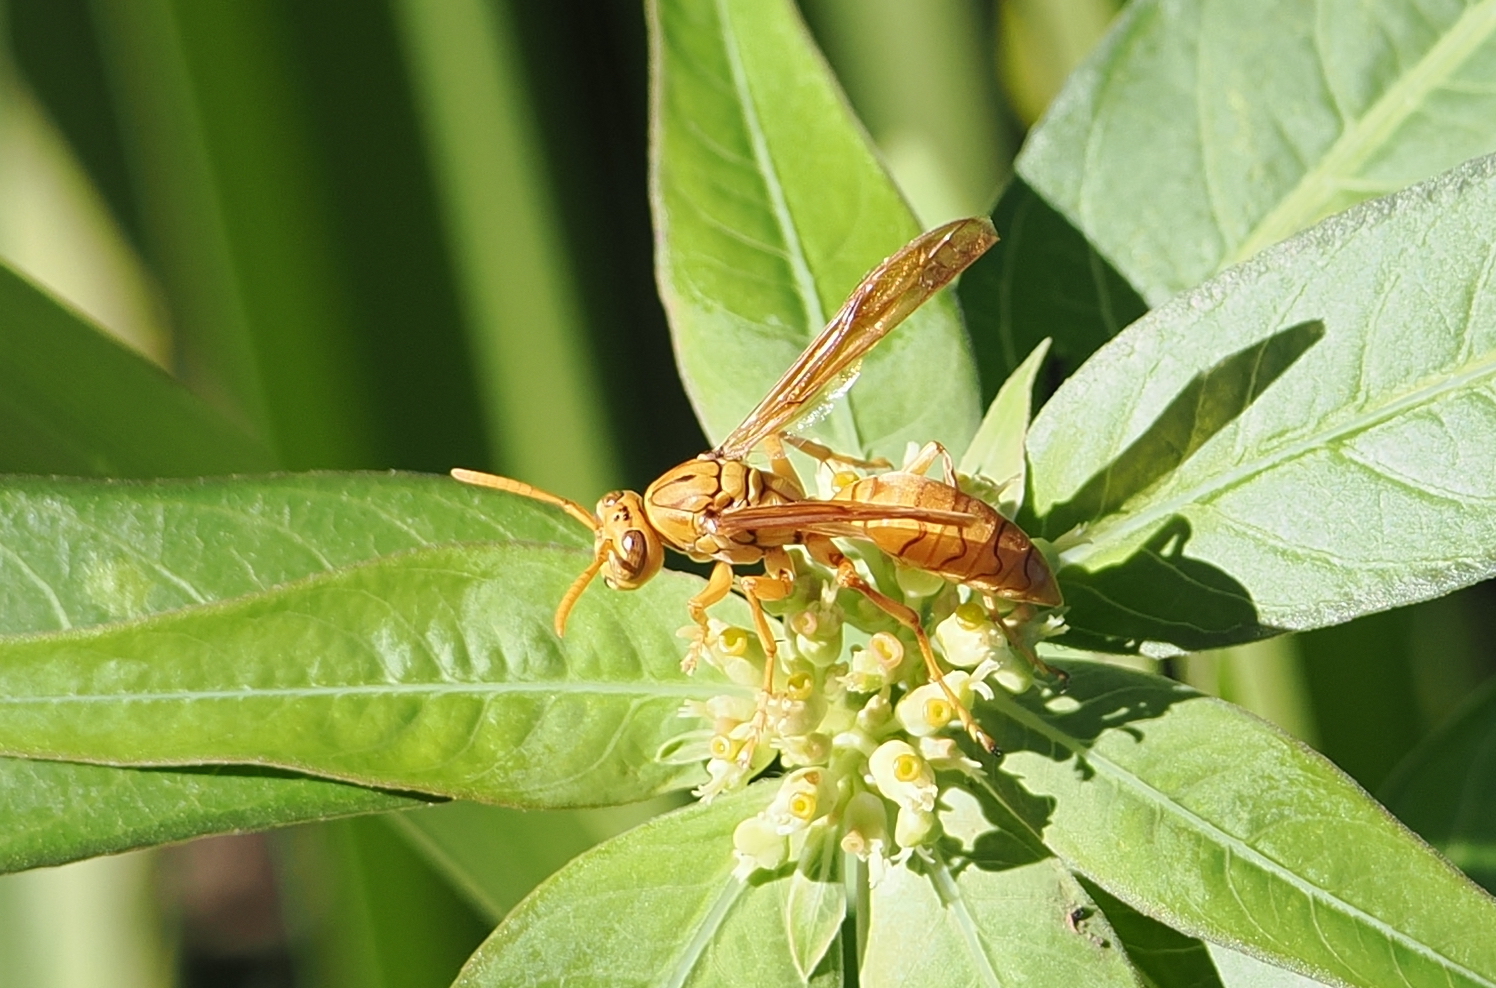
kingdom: Animalia
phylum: Arthropoda
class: Insecta
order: Hymenoptera
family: Eumenidae
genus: Polistes
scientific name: Polistes olivaceus
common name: Paper wasp
